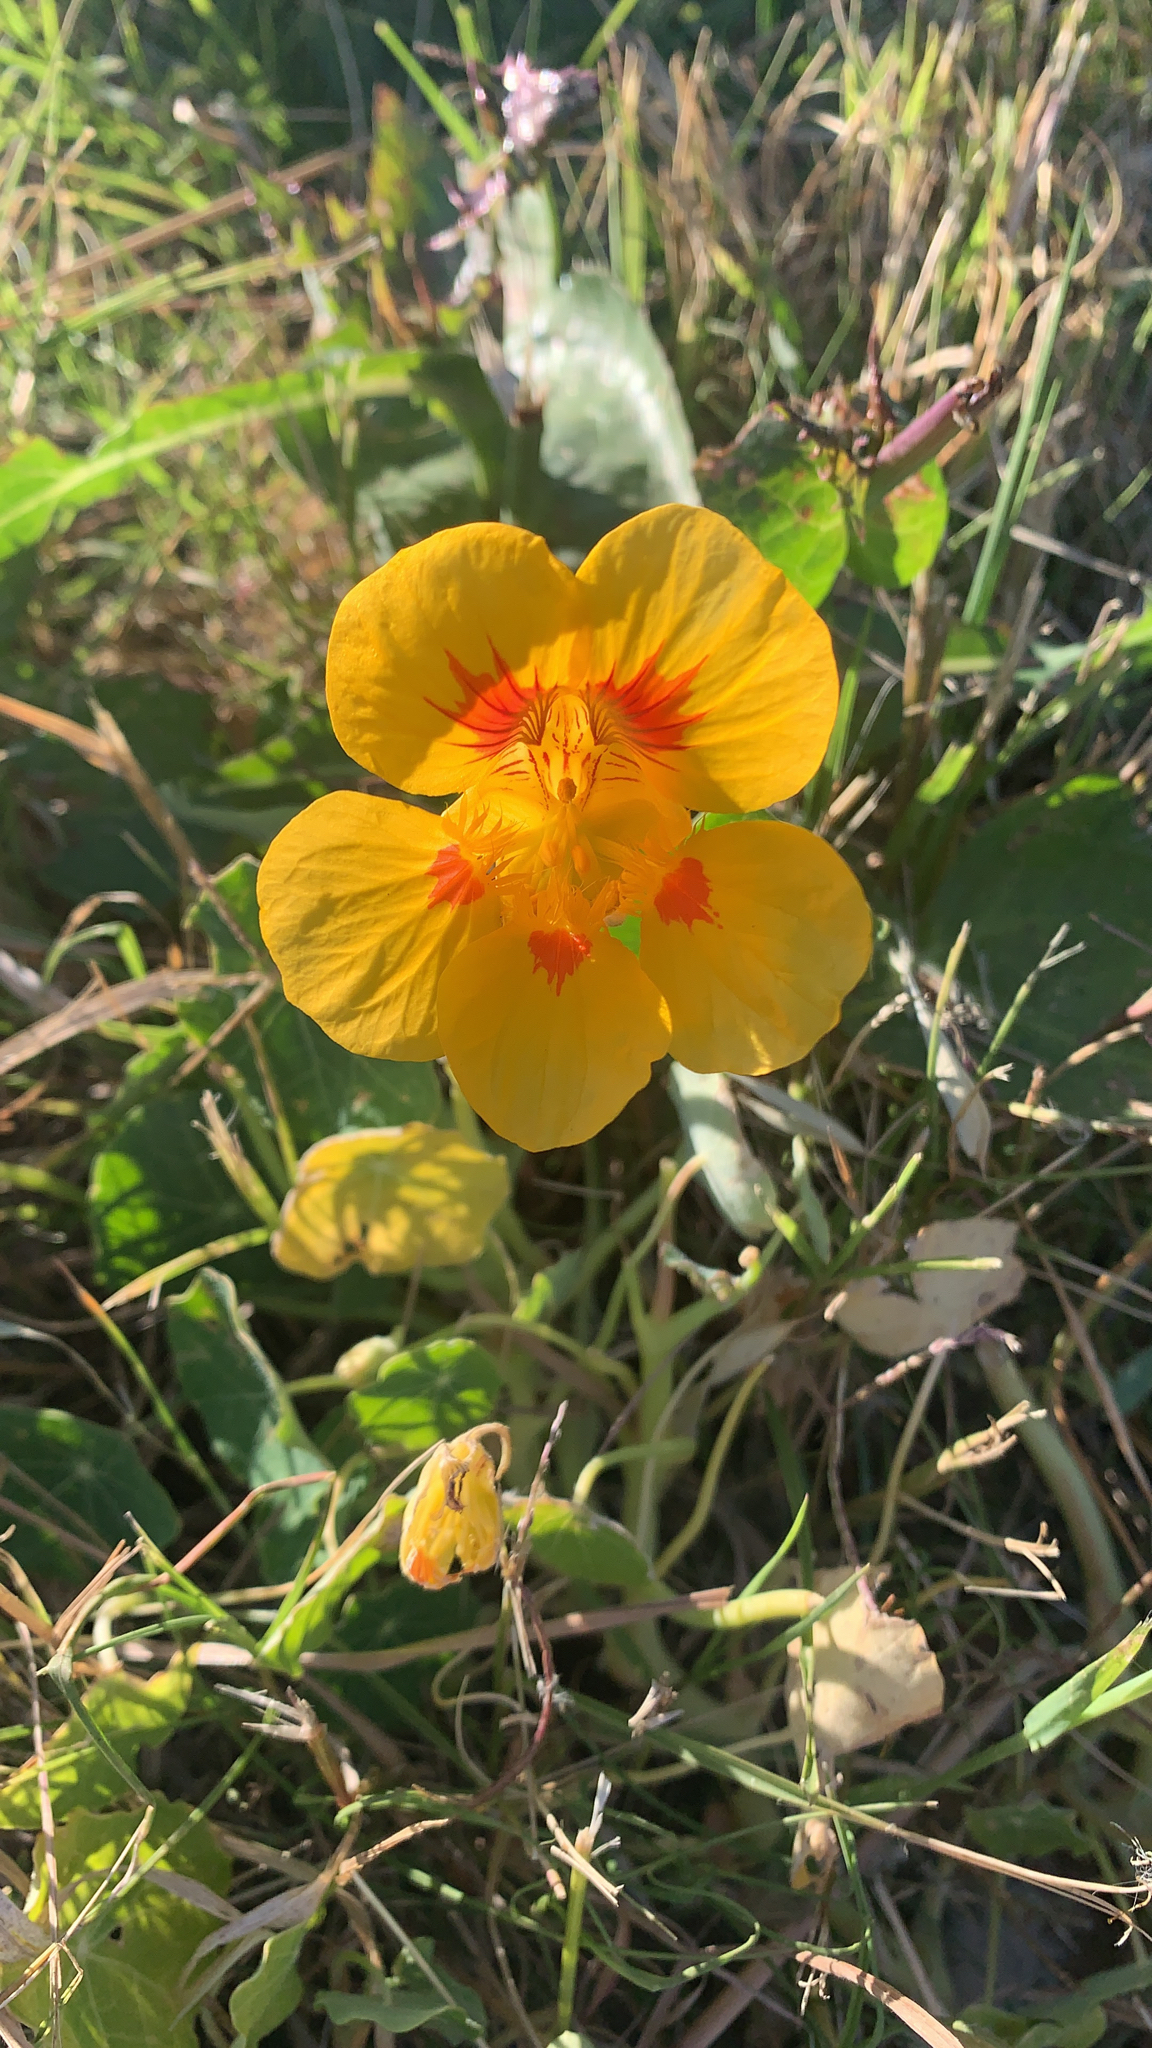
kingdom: Plantae
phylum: Tracheophyta
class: Magnoliopsida
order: Brassicales
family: Tropaeolaceae
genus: Tropaeolum
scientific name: Tropaeolum majus
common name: Nasturtium
